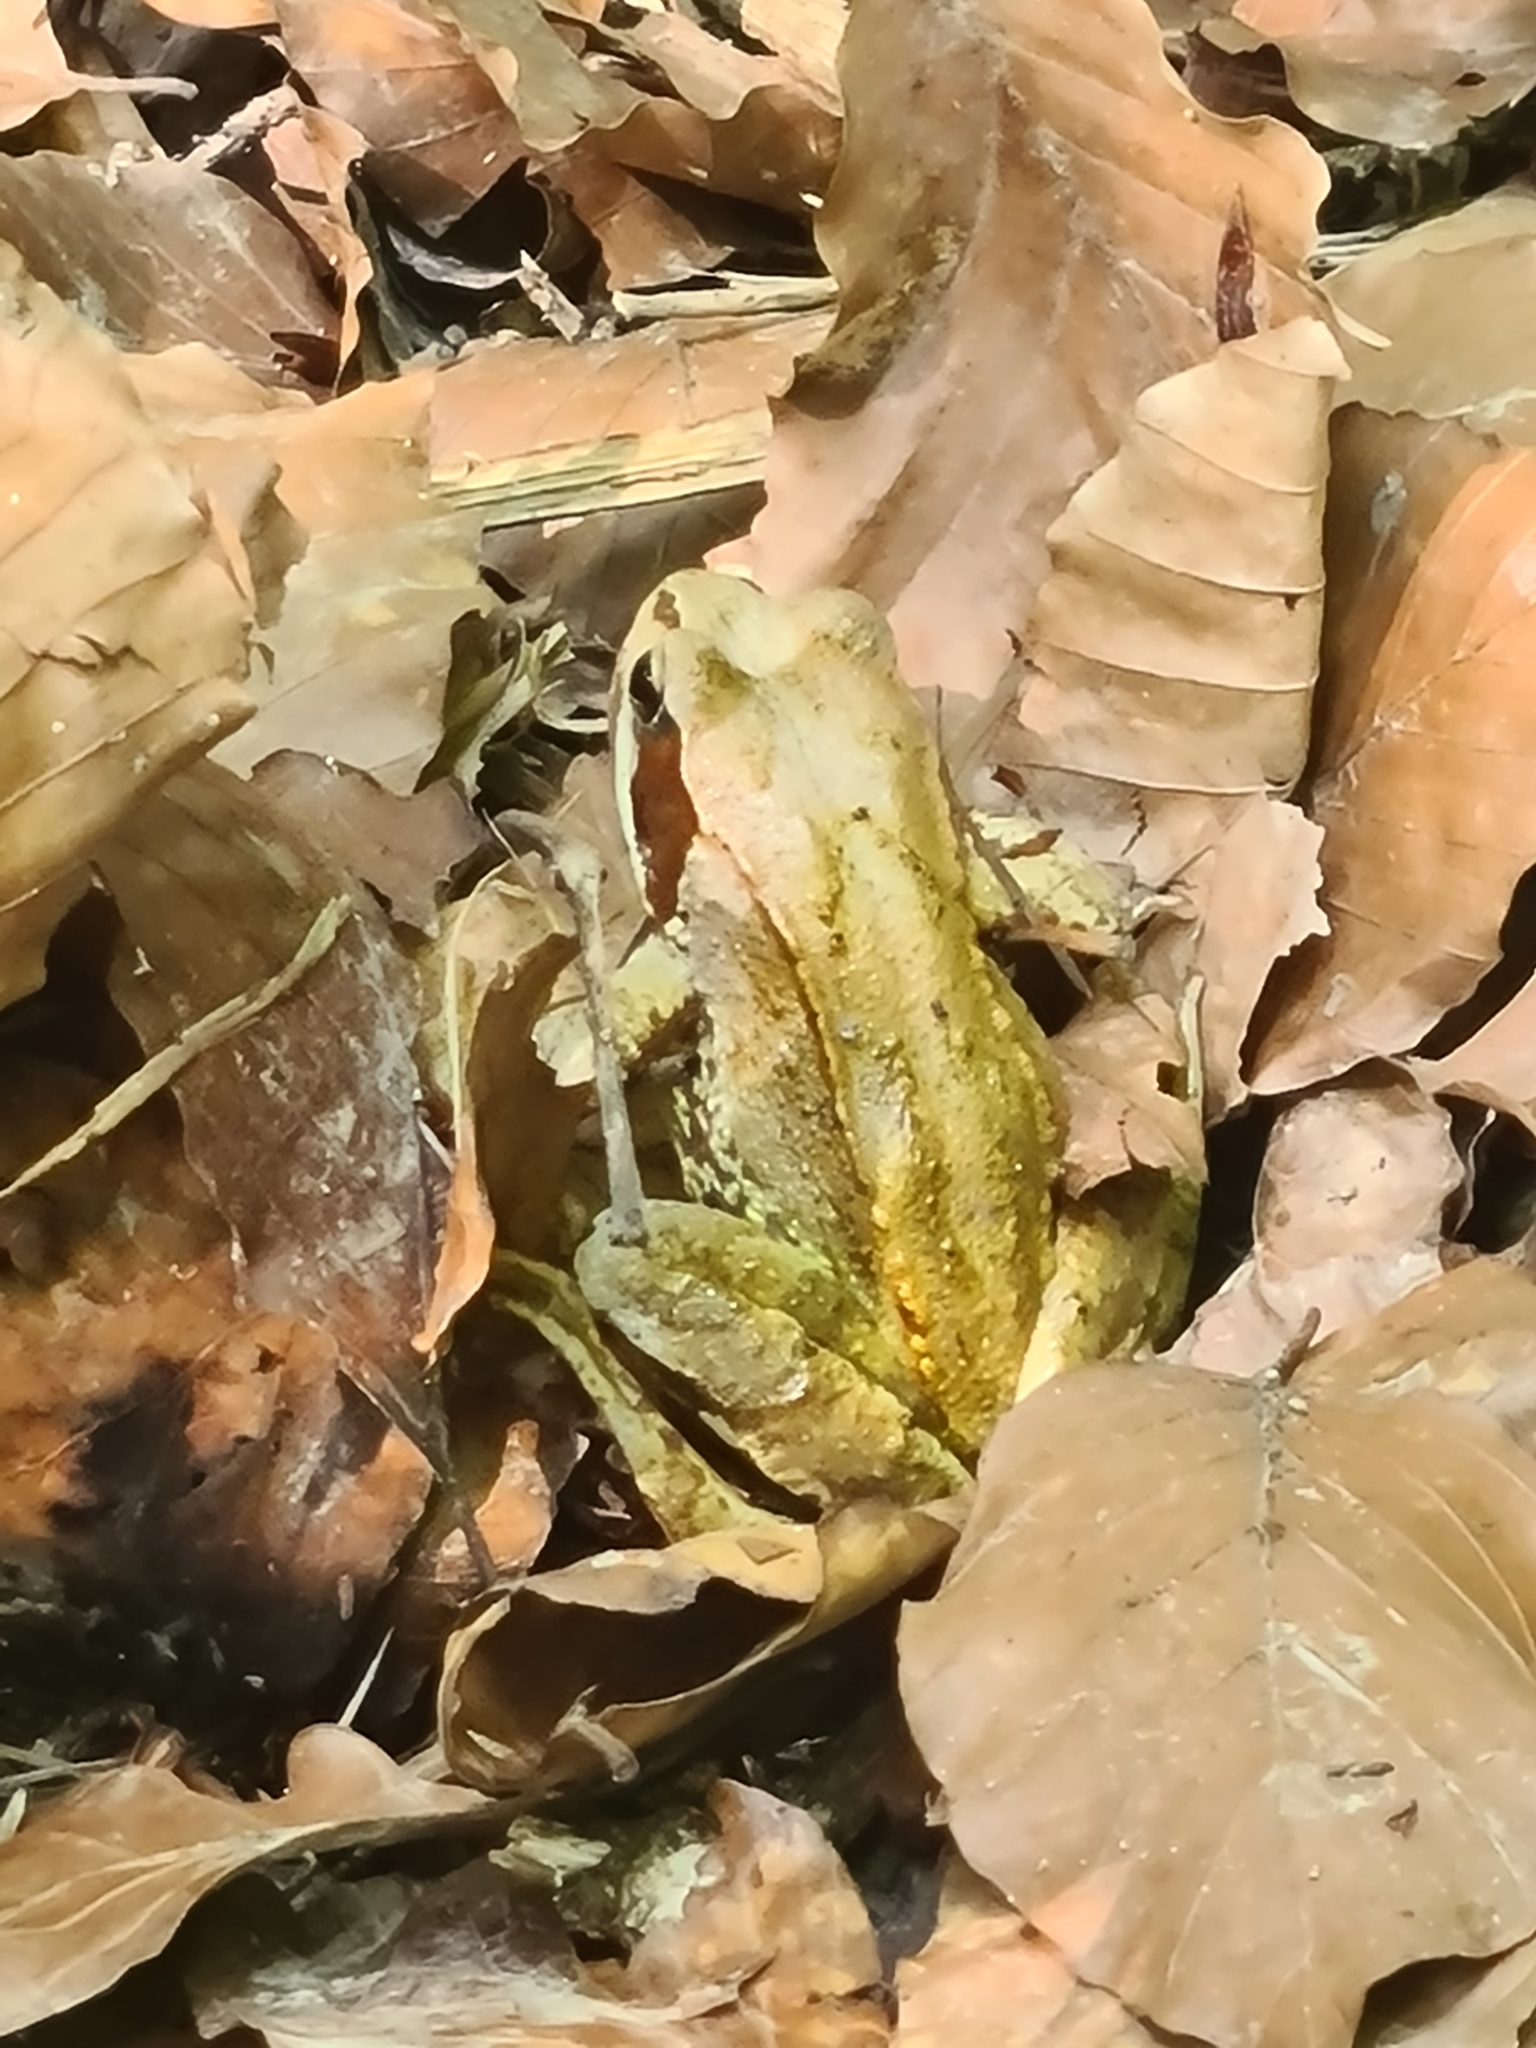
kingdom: Animalia
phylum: Chordata
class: Amphibia
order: Anura
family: Ranidae
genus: Rana
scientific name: Rana temporaria
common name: Common frog
